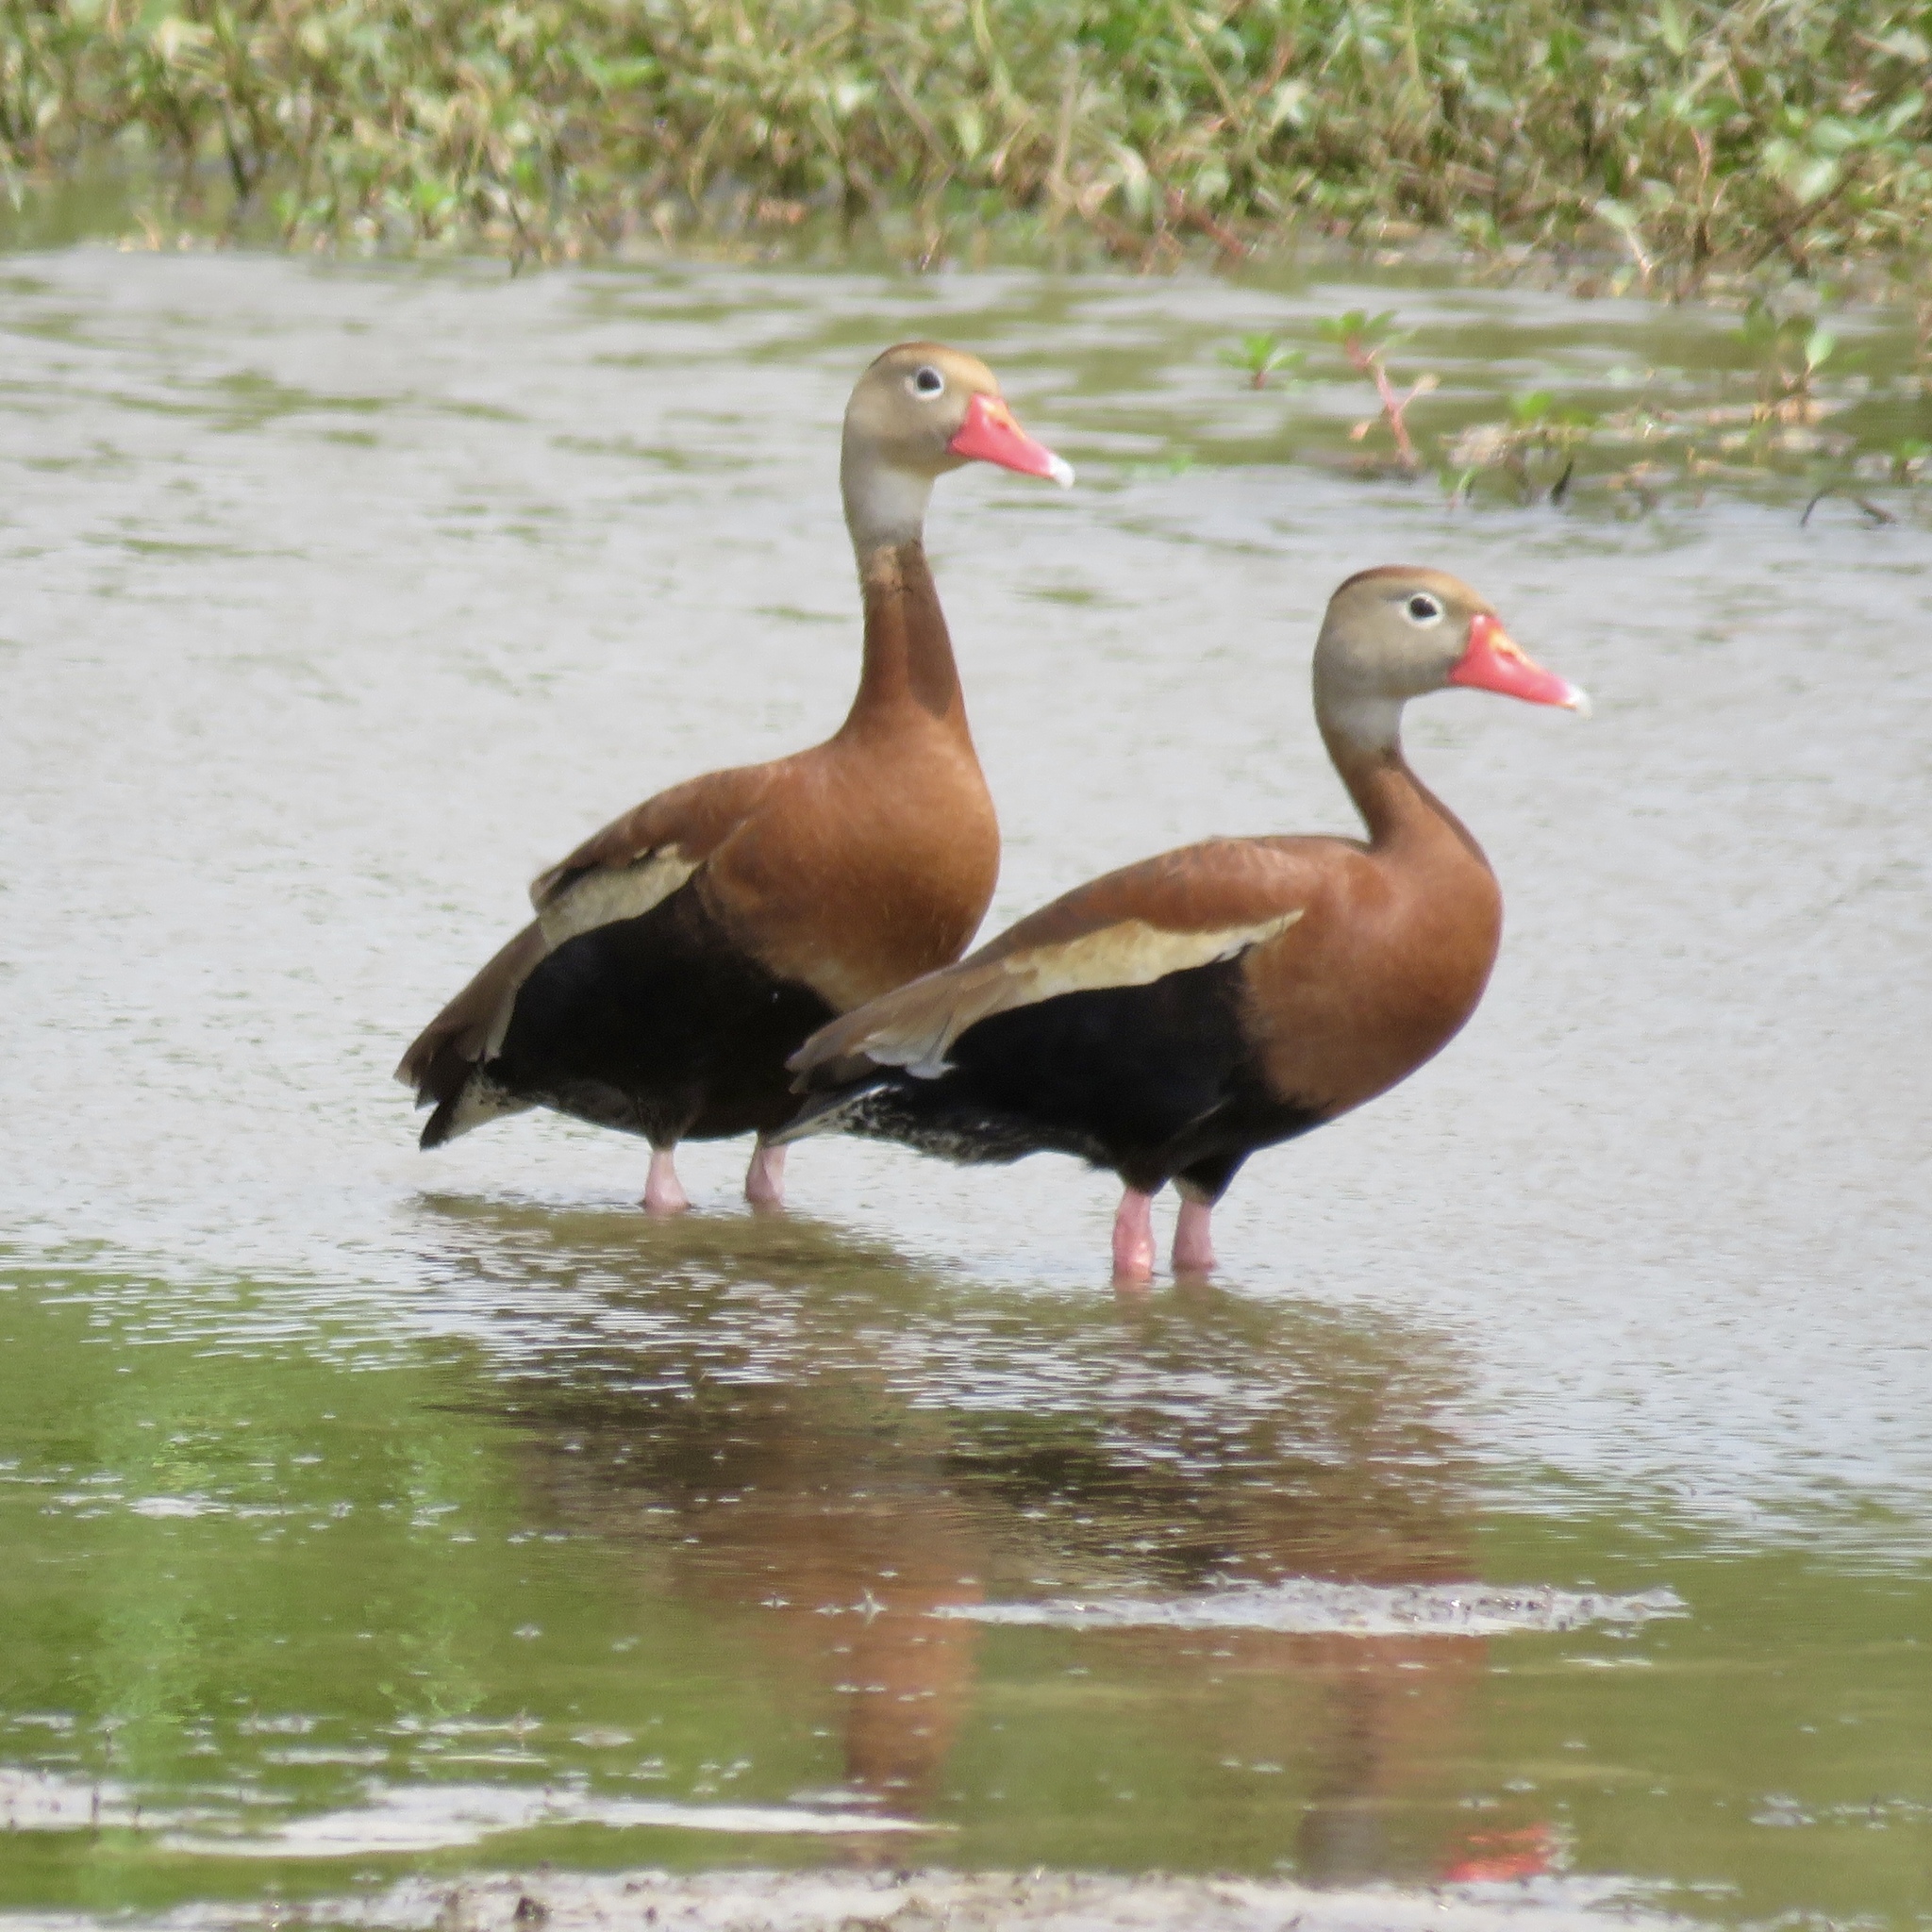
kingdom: Animalia
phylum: Chordata
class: Aves
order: Anseriformes
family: Anatidae
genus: Dendrocygna
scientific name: Dendrocygna autumnalis
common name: Black-bellied whistling duck
